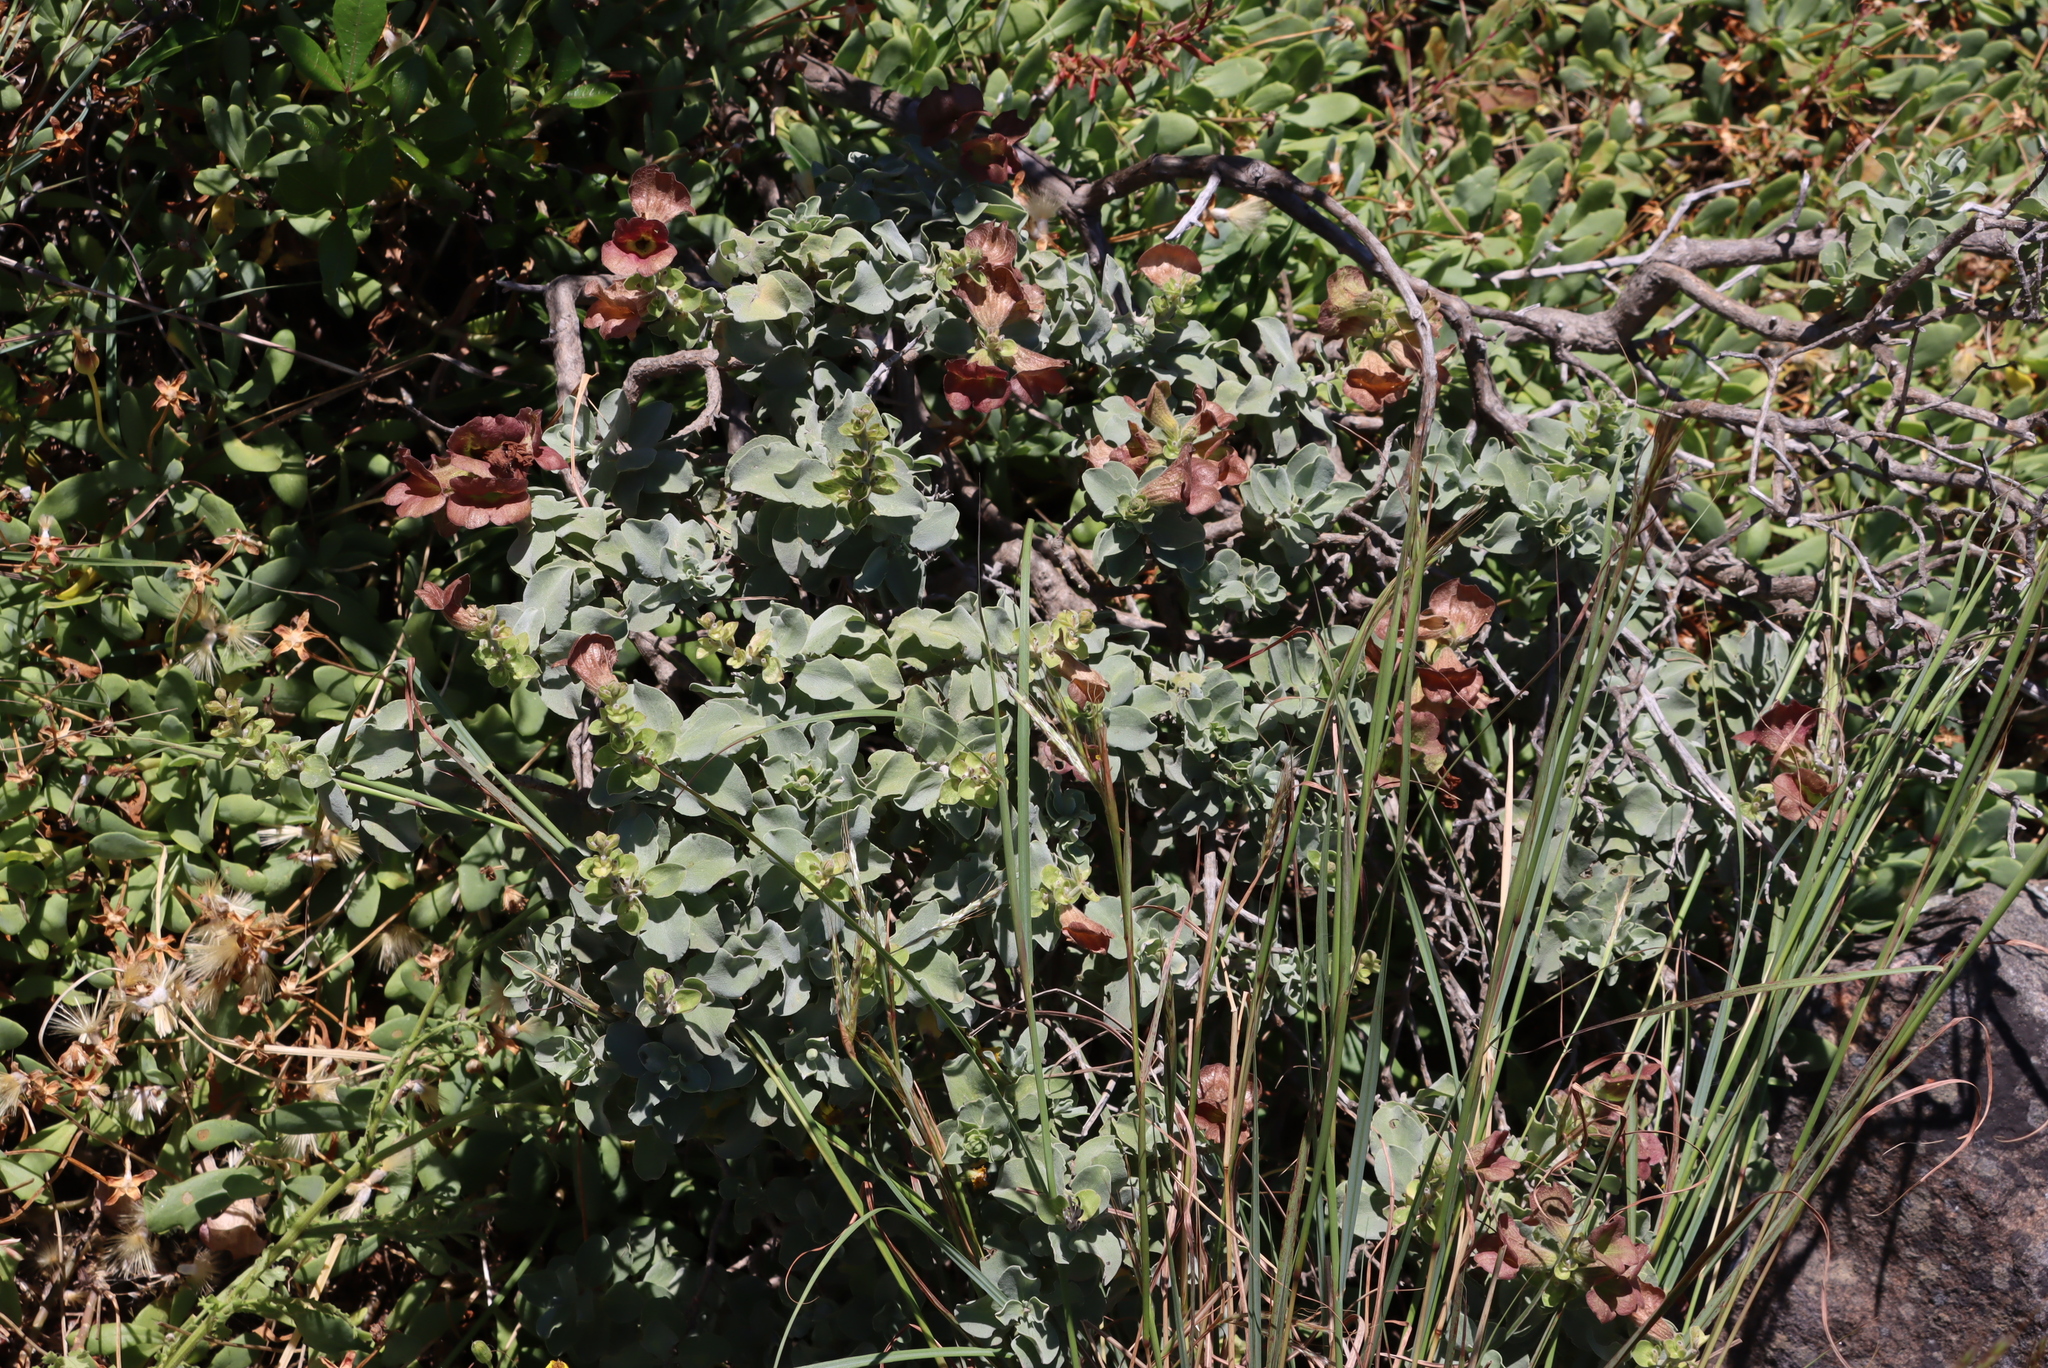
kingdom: Plantae
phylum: Tracheophyta
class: Magnoliopsida
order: Lamiales
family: Lamiaceae
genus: Salvia
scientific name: Salvia aurea
